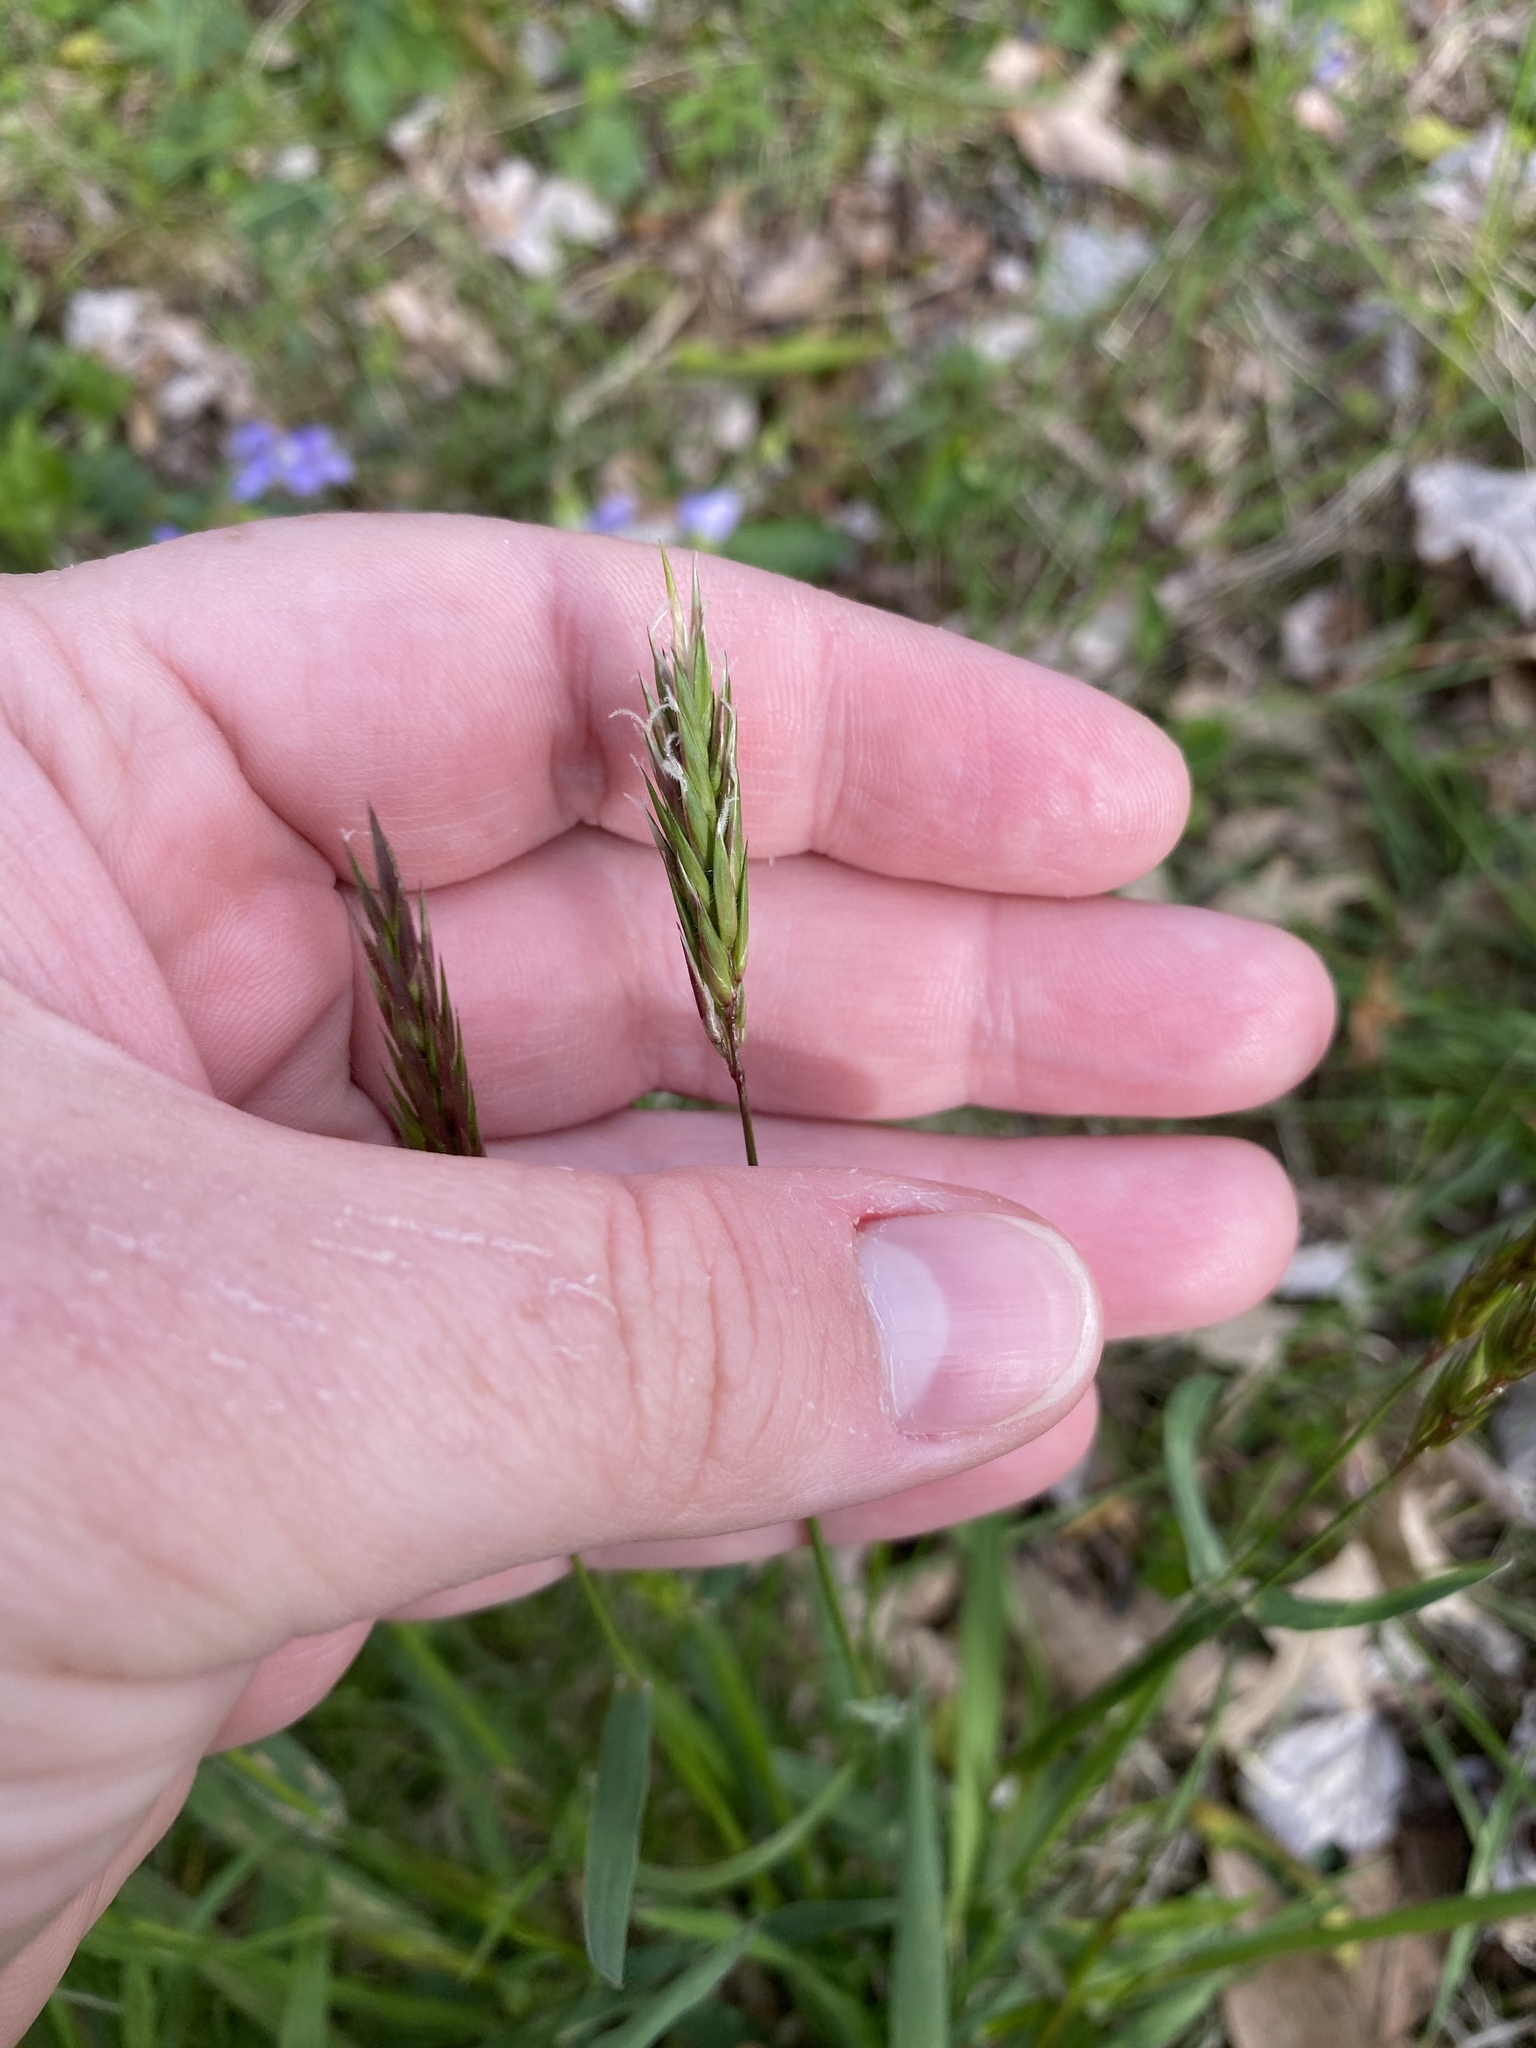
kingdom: Plantae
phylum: Tracheophyta
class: Liliopsida
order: Poales
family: Poaceae
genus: Anthoxanthum
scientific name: Anthoxanthum odoratum
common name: Sweet vernalgrass
